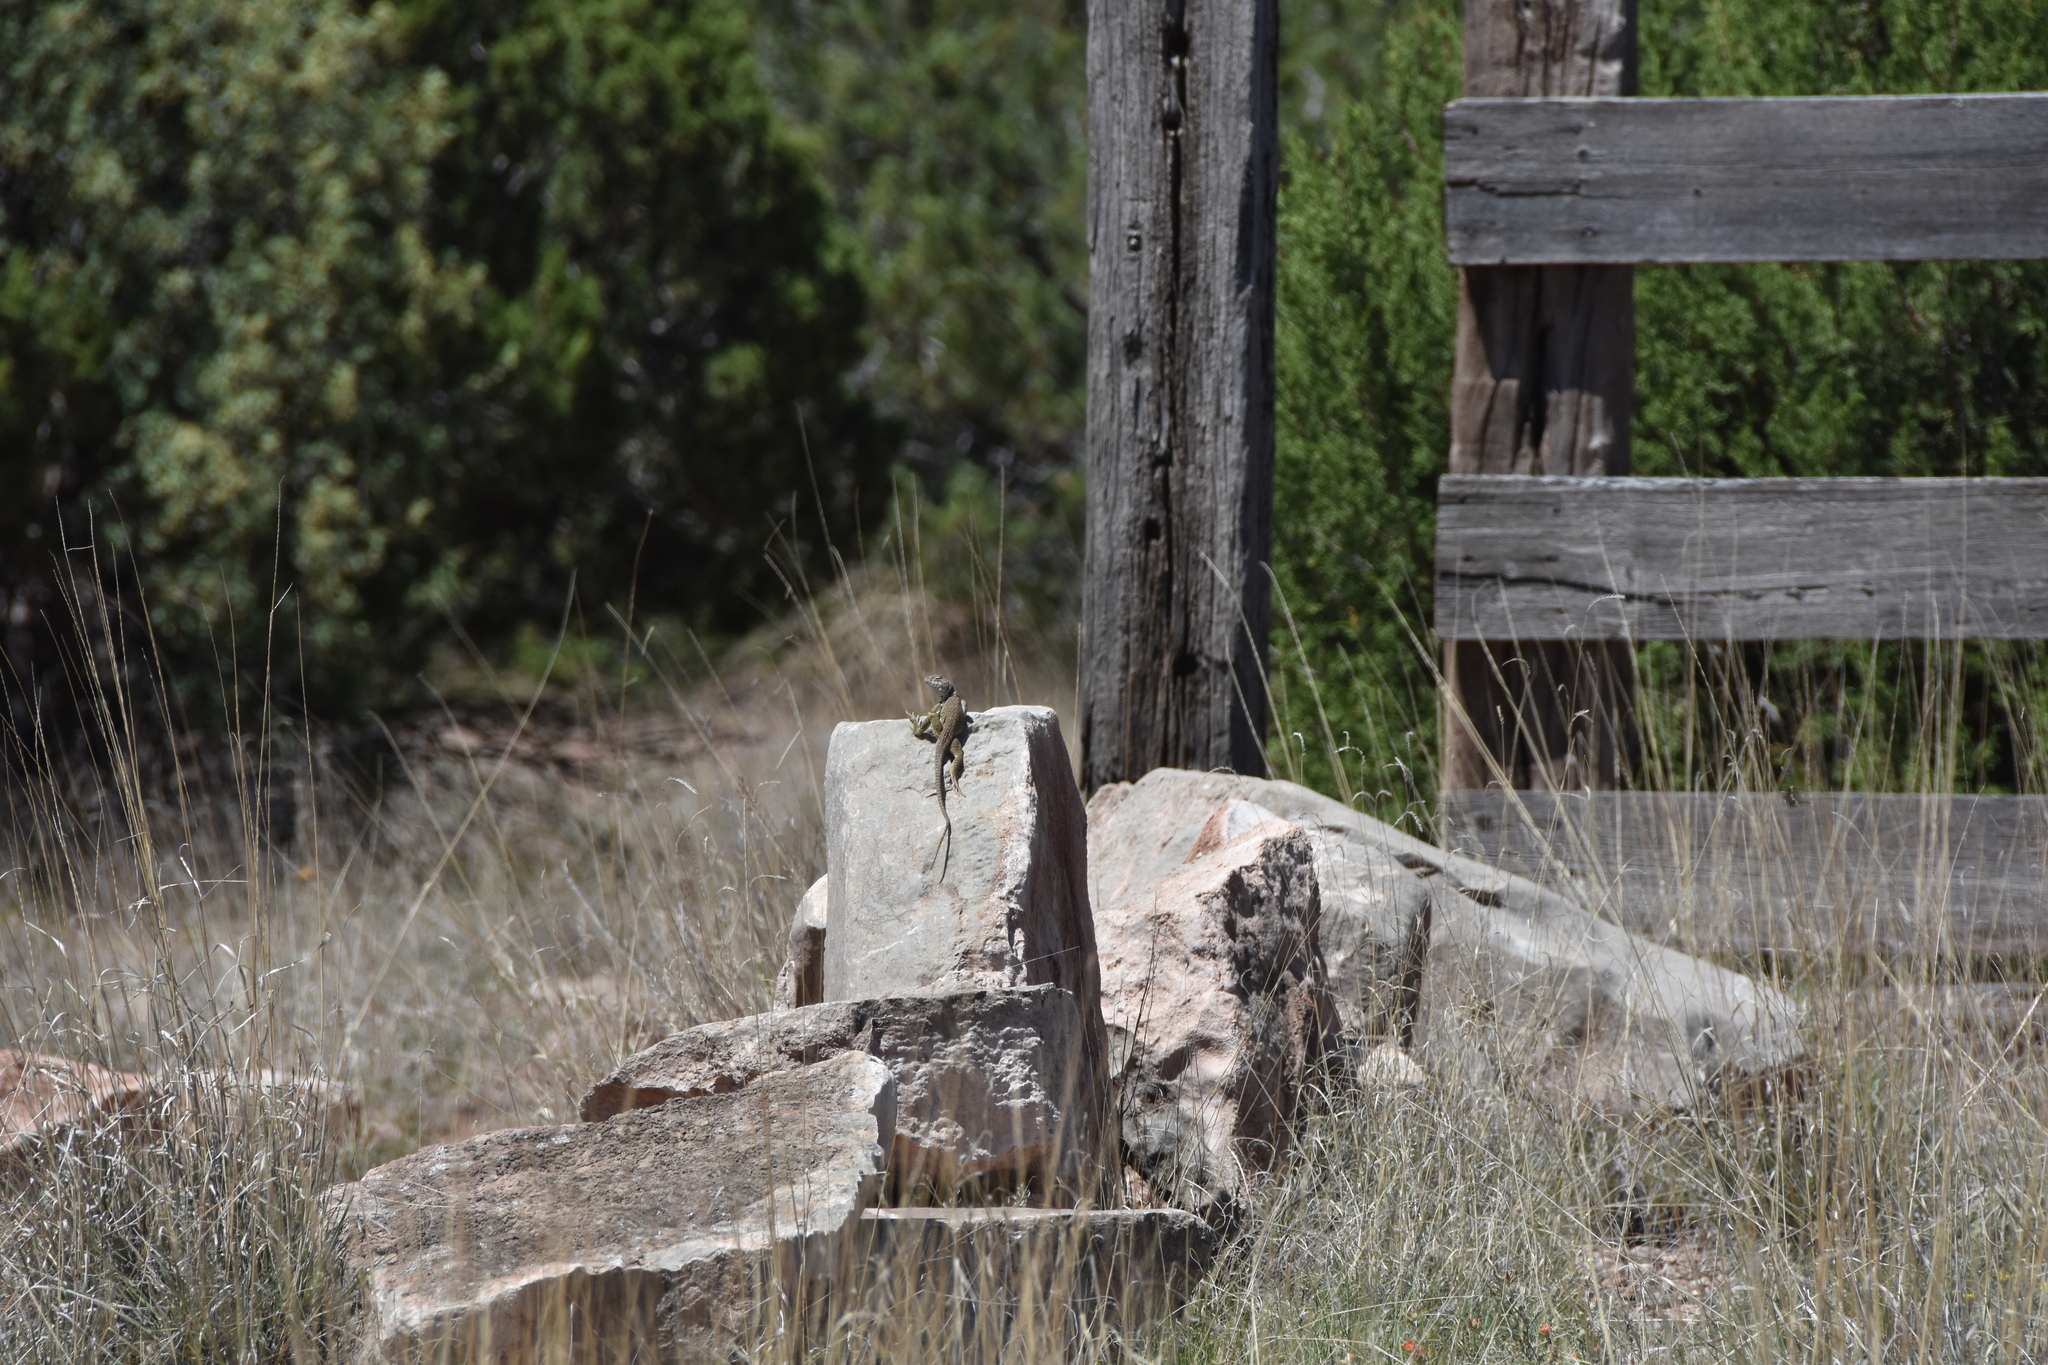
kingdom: Animalia
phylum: Chordata
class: Squamata
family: Crotaphytidae
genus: Crotaphytus
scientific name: Crotaphytus collaris
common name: Collared lizard
